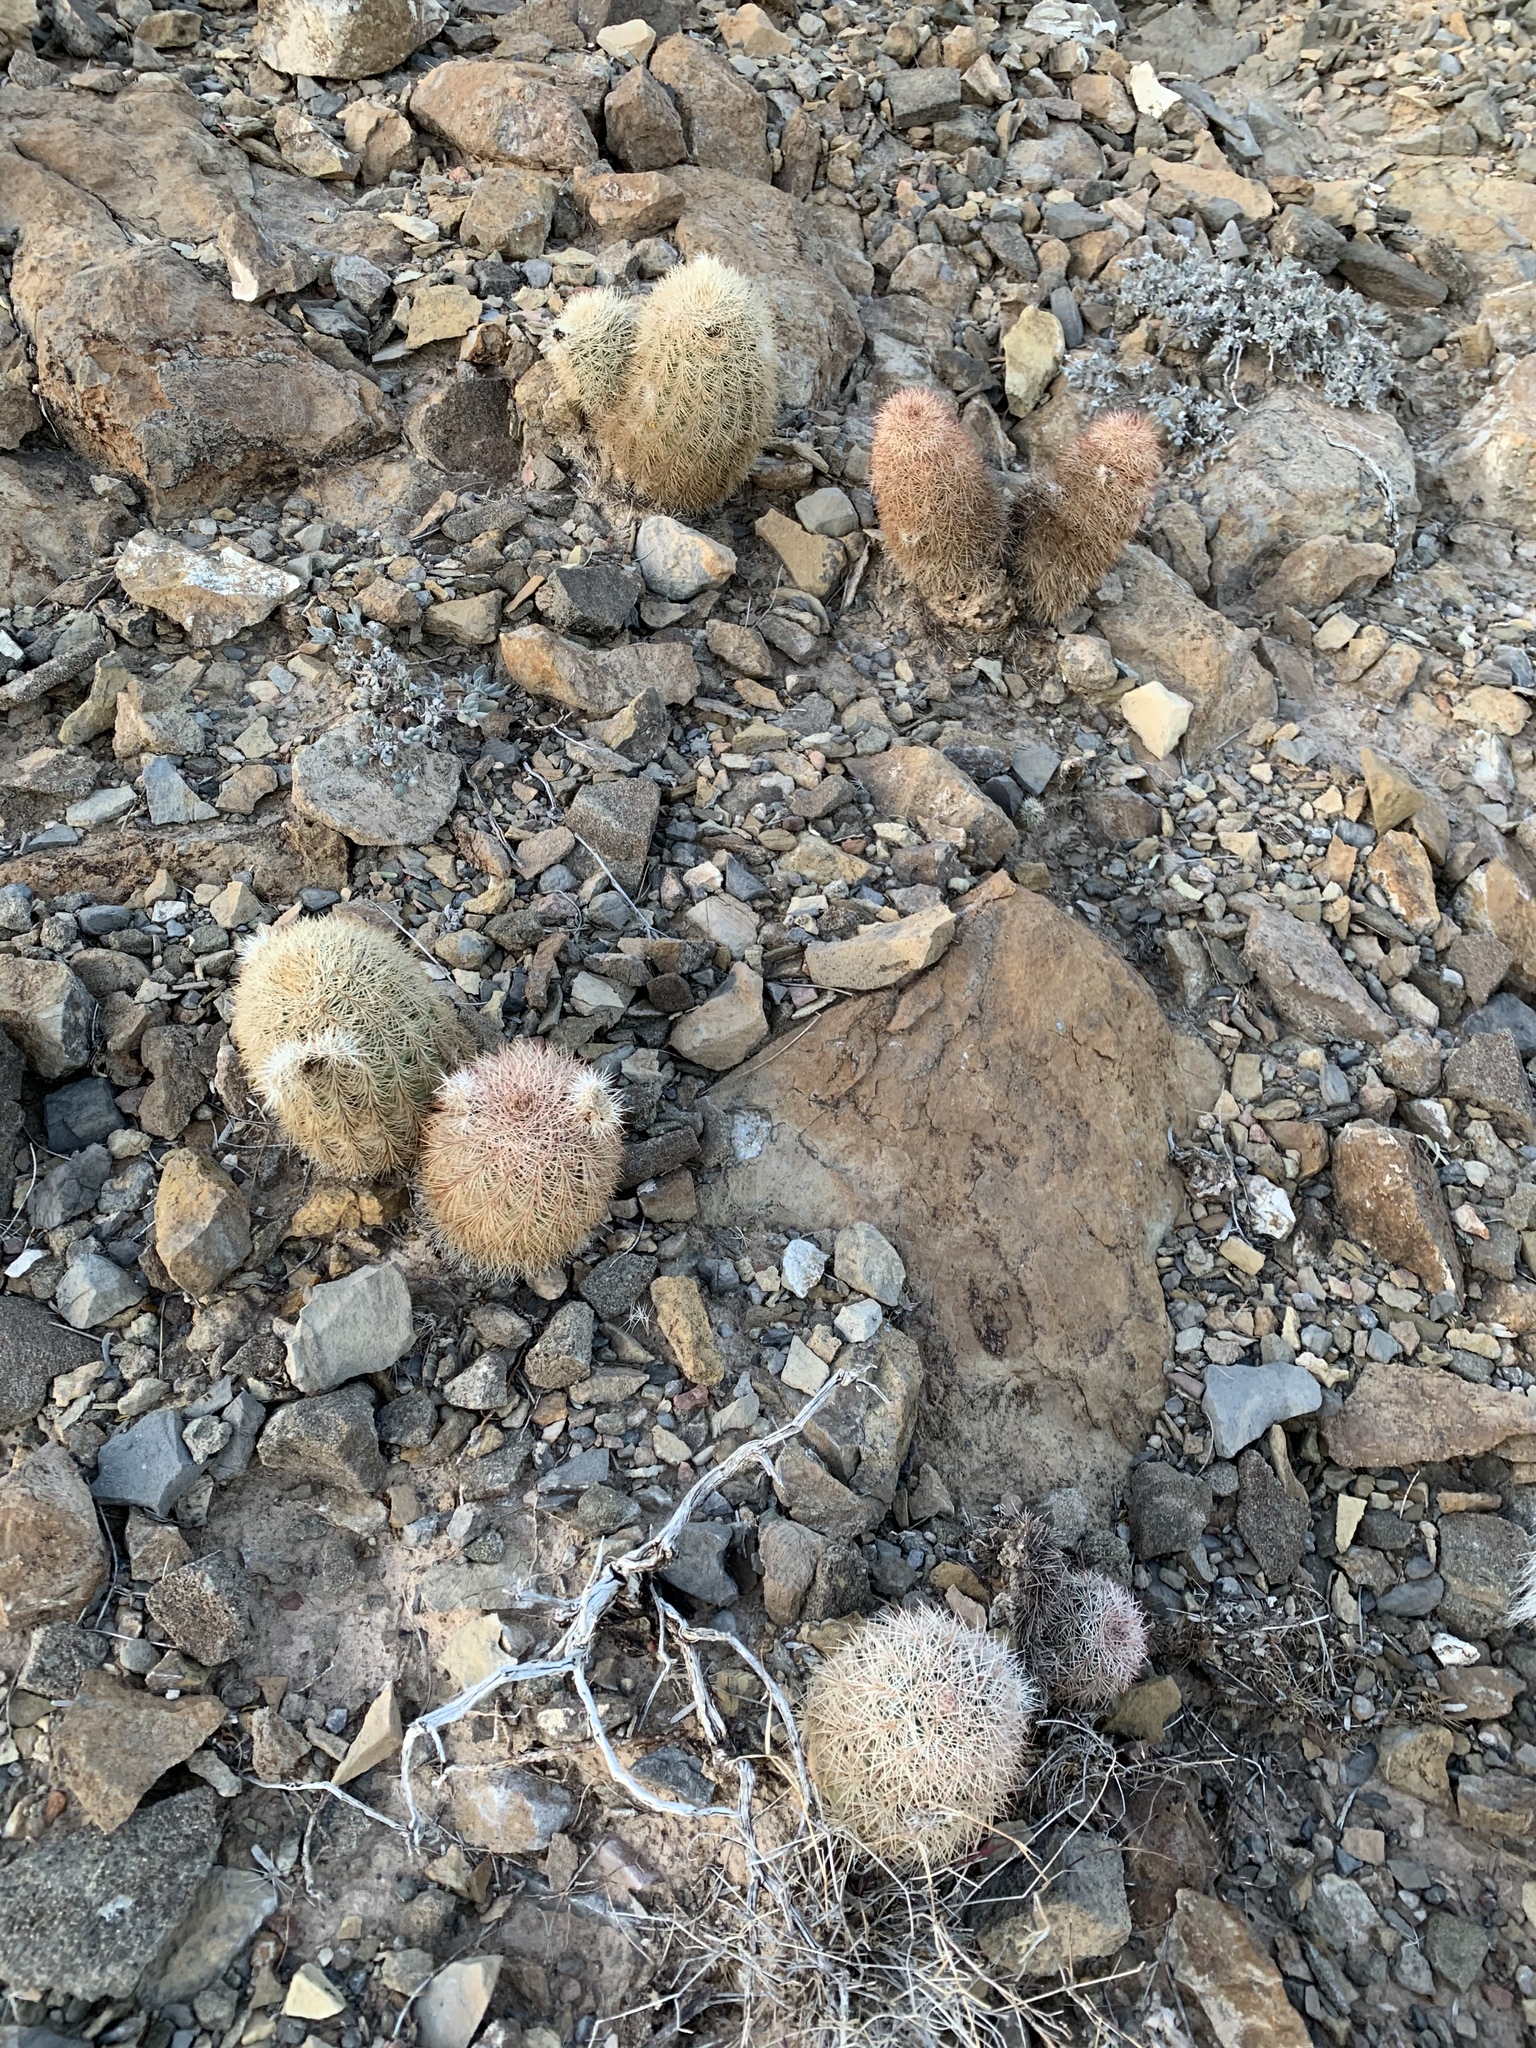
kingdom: Plantae
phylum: Tracheophyta
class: Magnoliopsida
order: Caryophyllales
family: Cactaceae
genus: Echinocereus
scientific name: Echinocereus dasyacanthus
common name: Spiny hedgehog cactus
